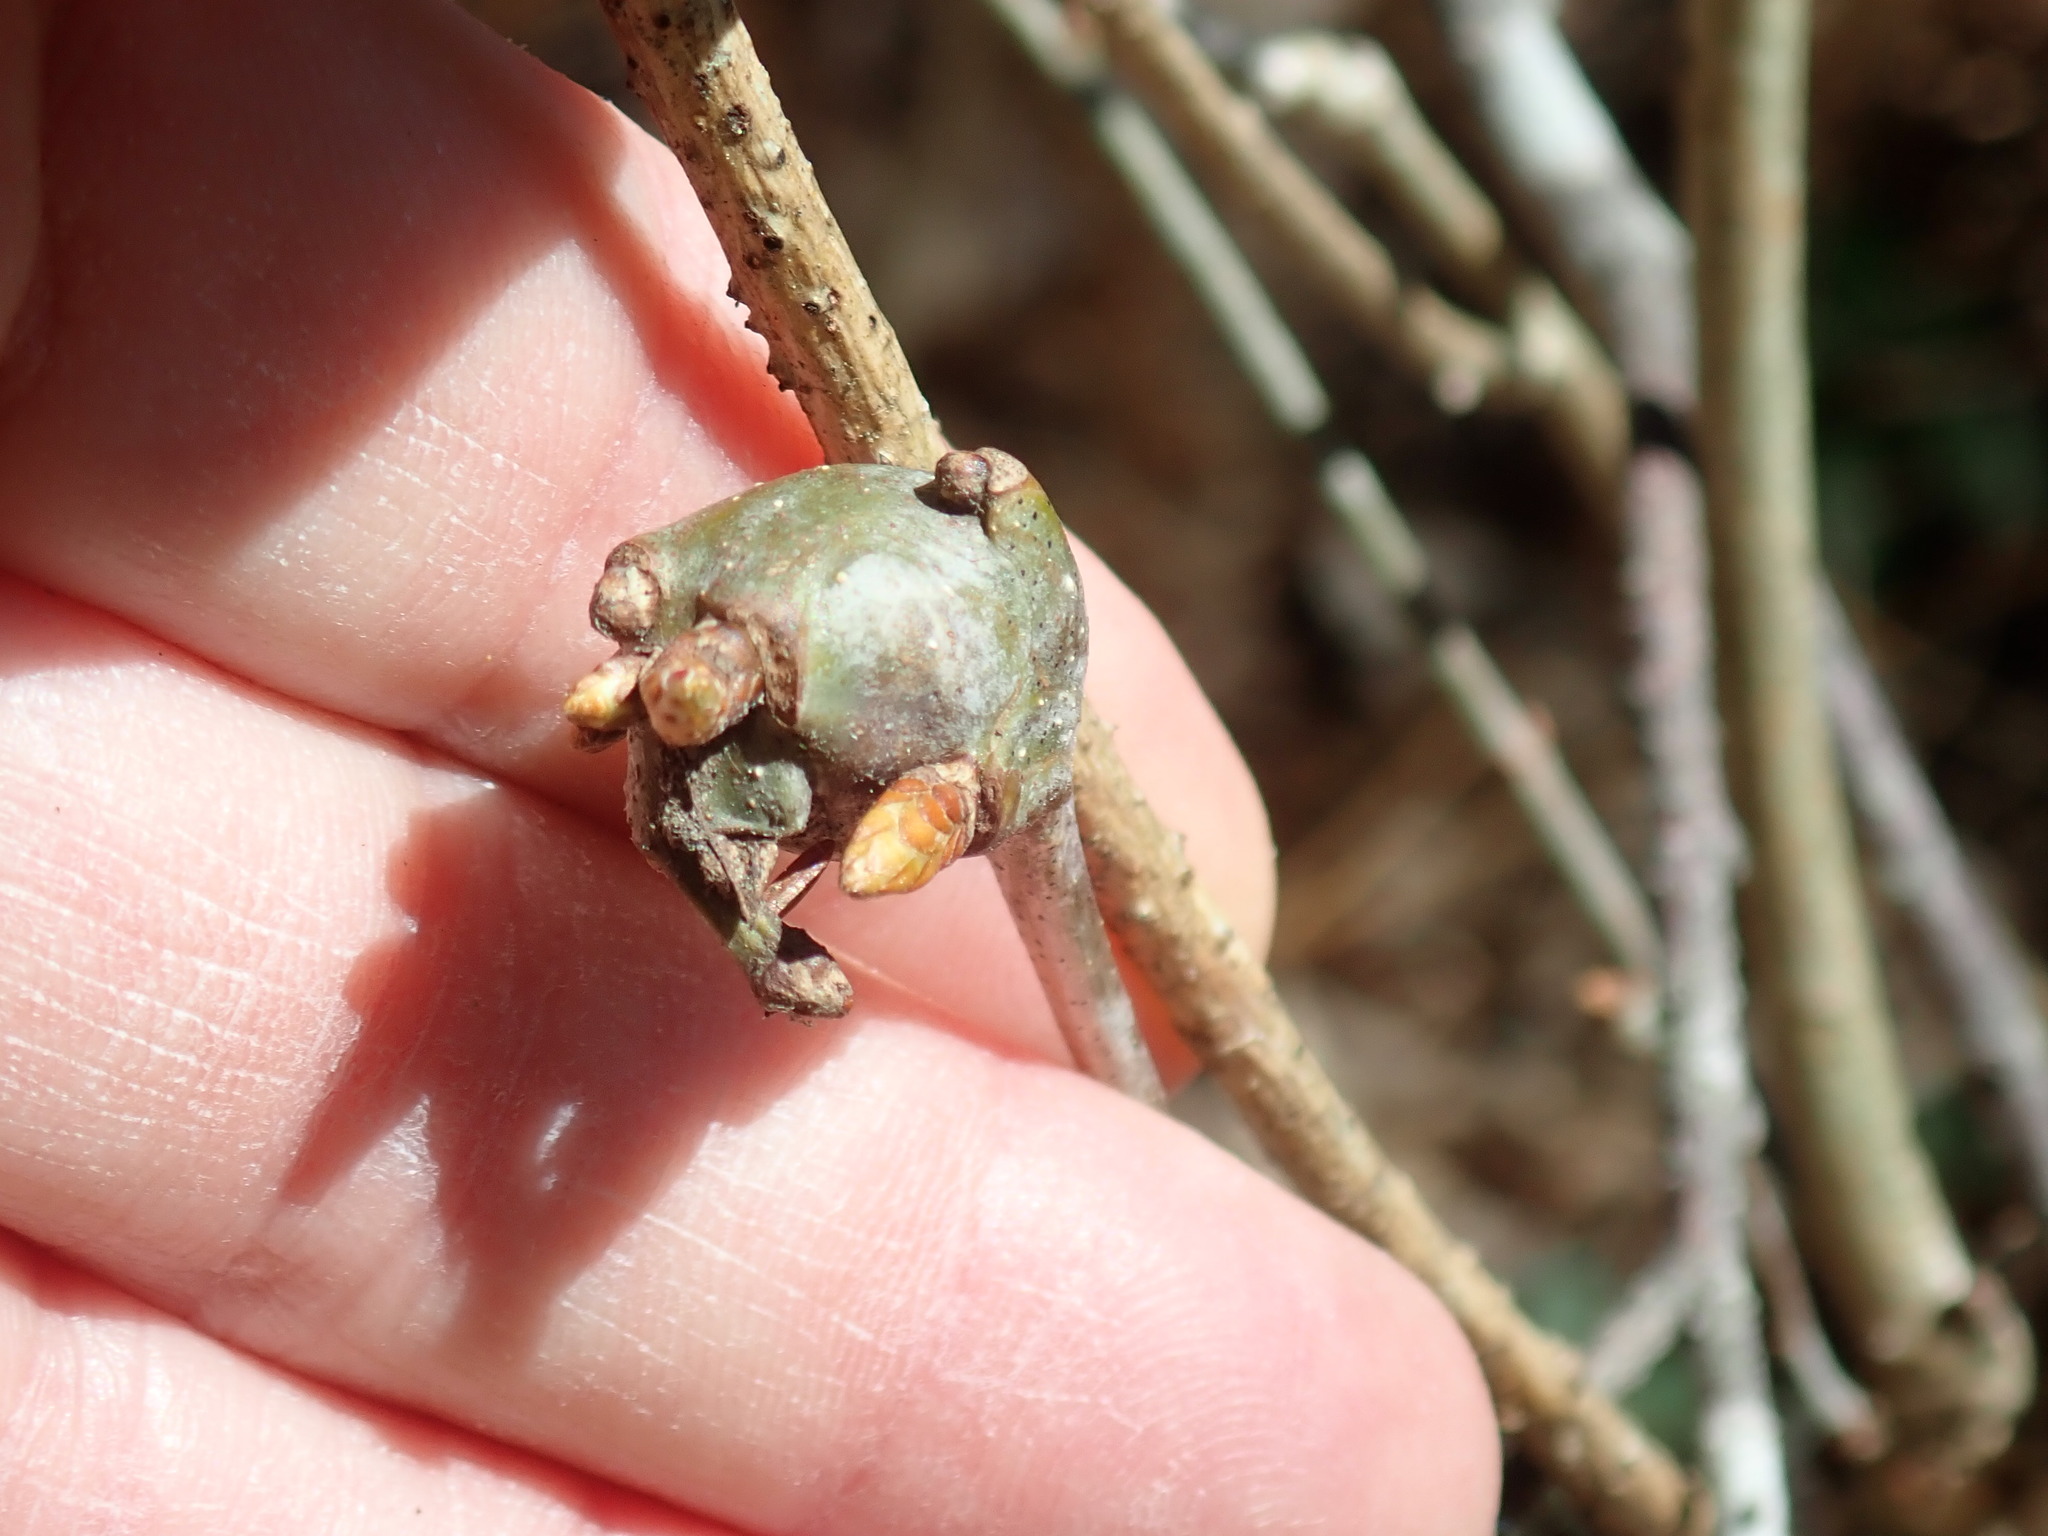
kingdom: Animalia
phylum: Arthropoda
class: Insecta
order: Hymenoptera
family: Cynipidae
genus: Callirhytis
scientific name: Callirhytis clavula
